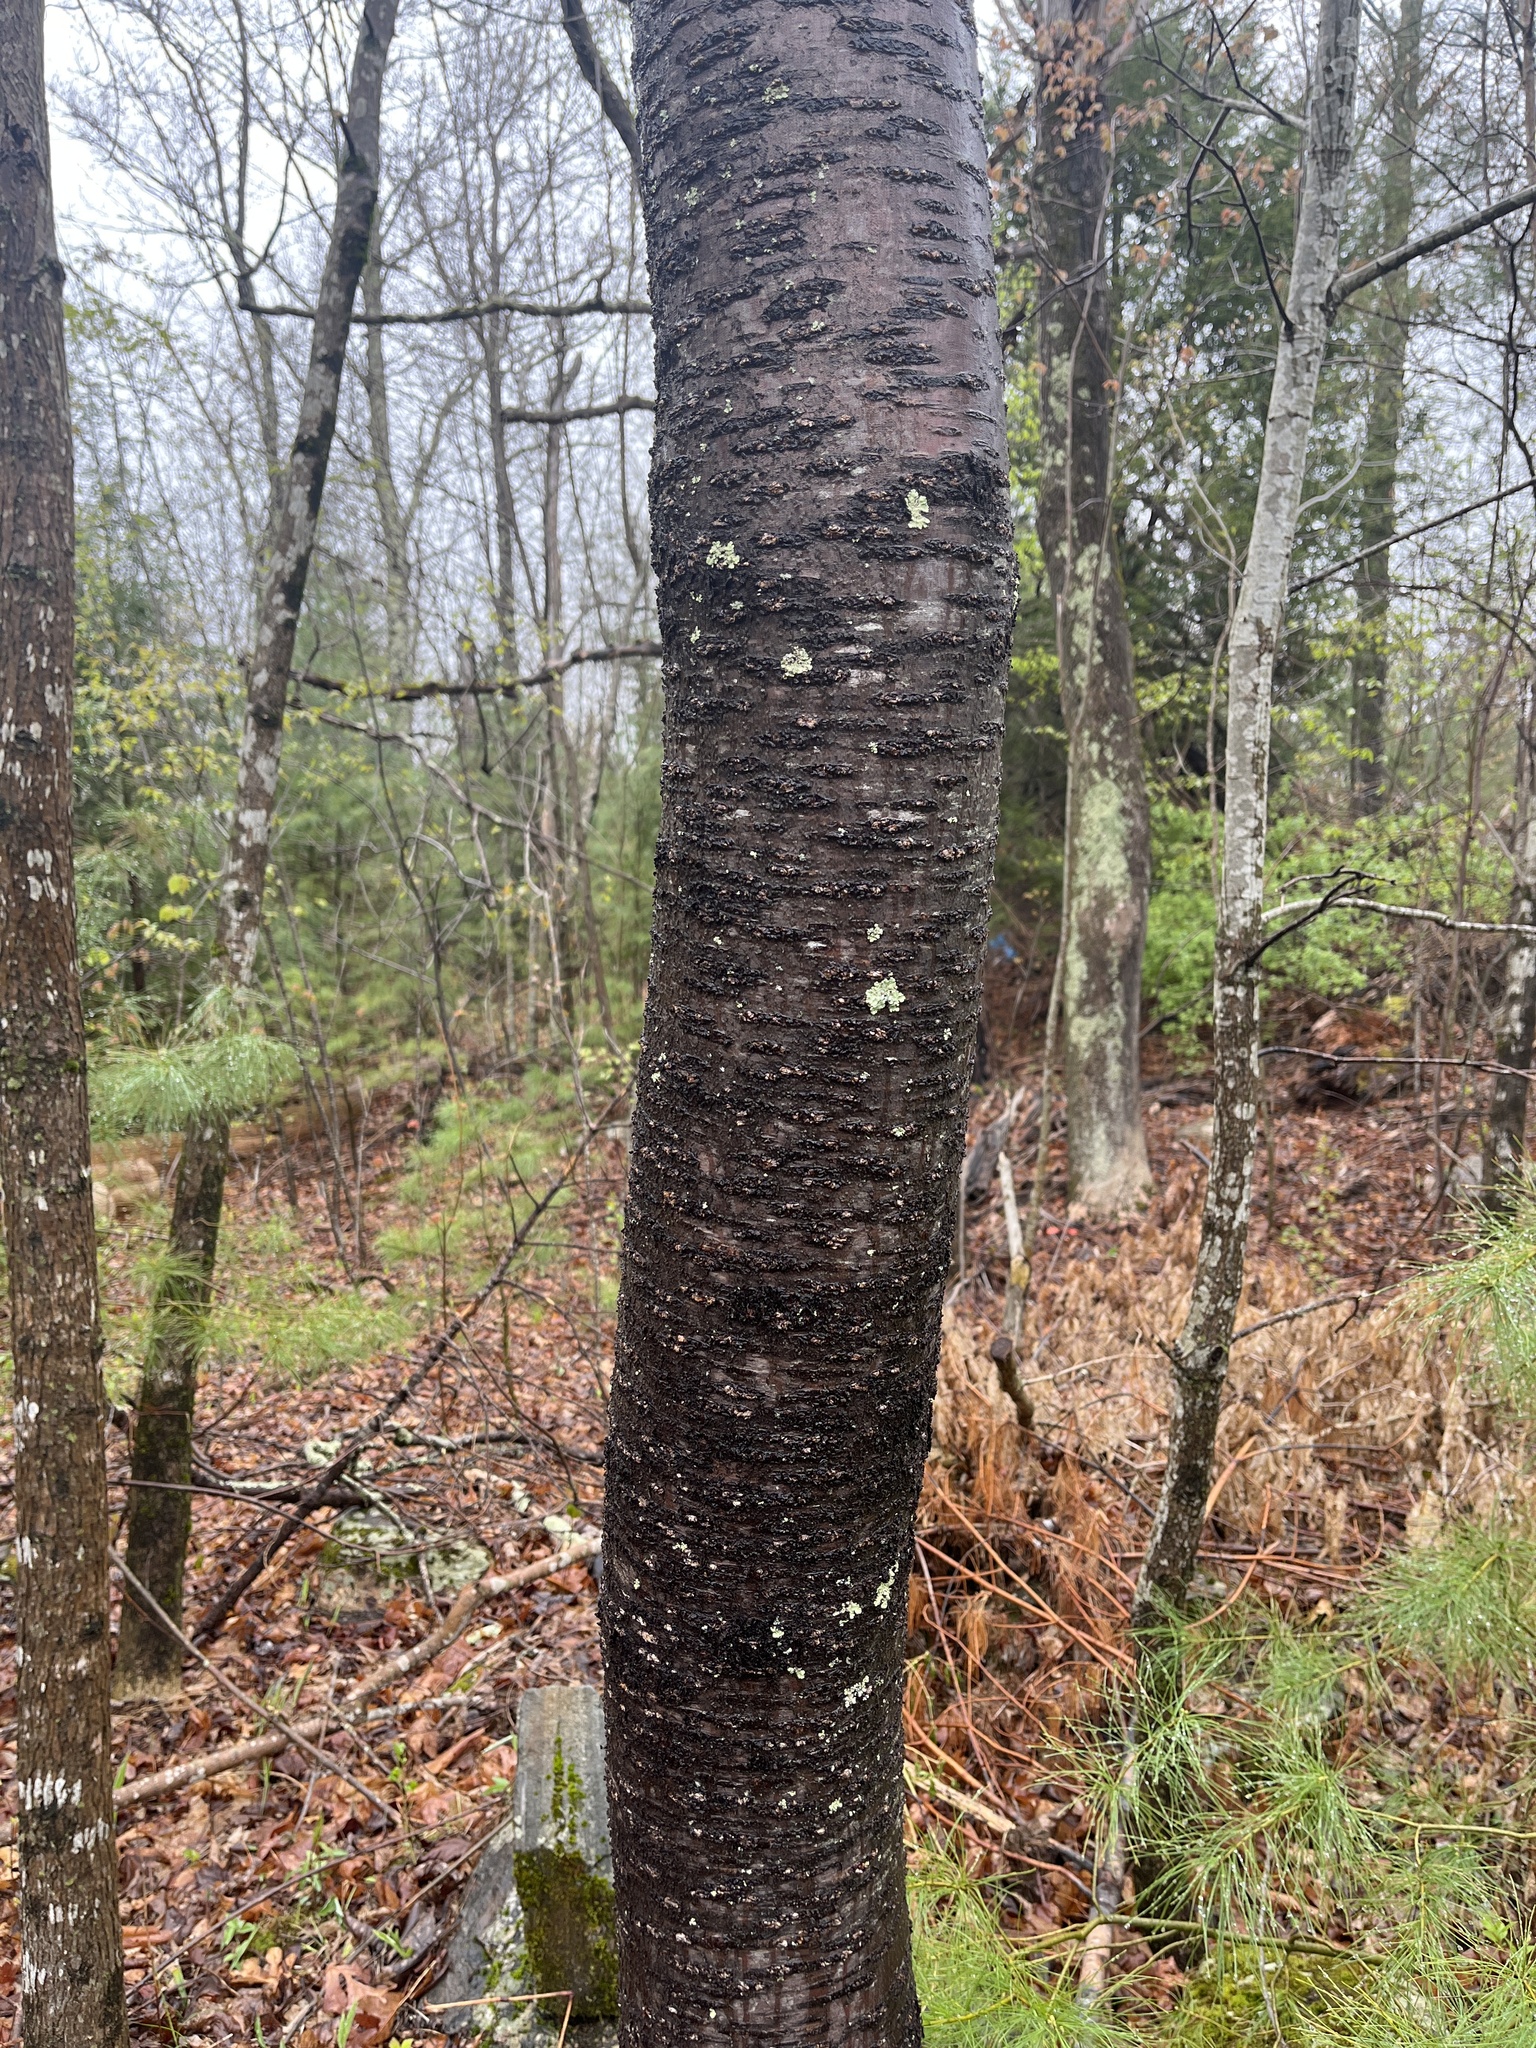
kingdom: Plantae
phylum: Tracheophyta
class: Magnoliopsida
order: Rosales
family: Rosaceae
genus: Prunus
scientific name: Prunus pensylvanica
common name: Pin cherry
